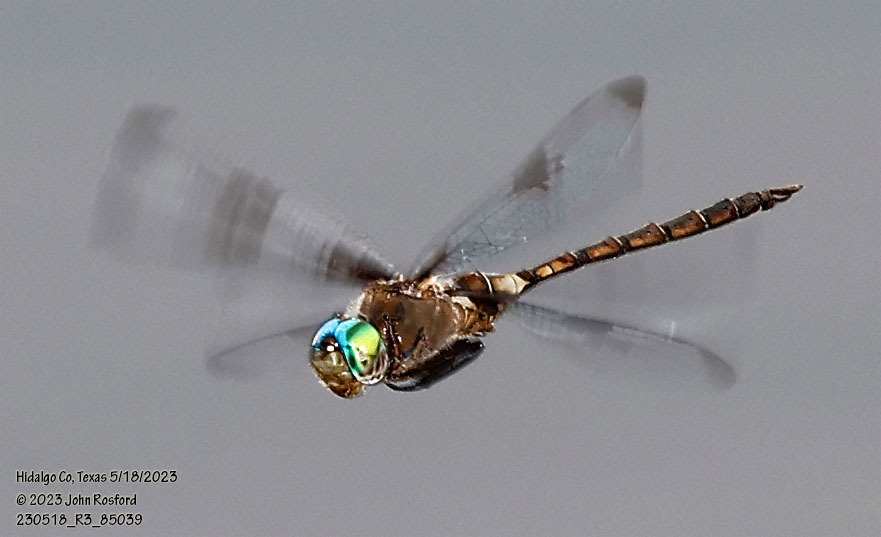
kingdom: Animalia
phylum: Arthropoda
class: Insecta
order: Odonata
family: Corduliidae
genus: Epitheca
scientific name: Epitheca princeps
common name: Prince baskettail
